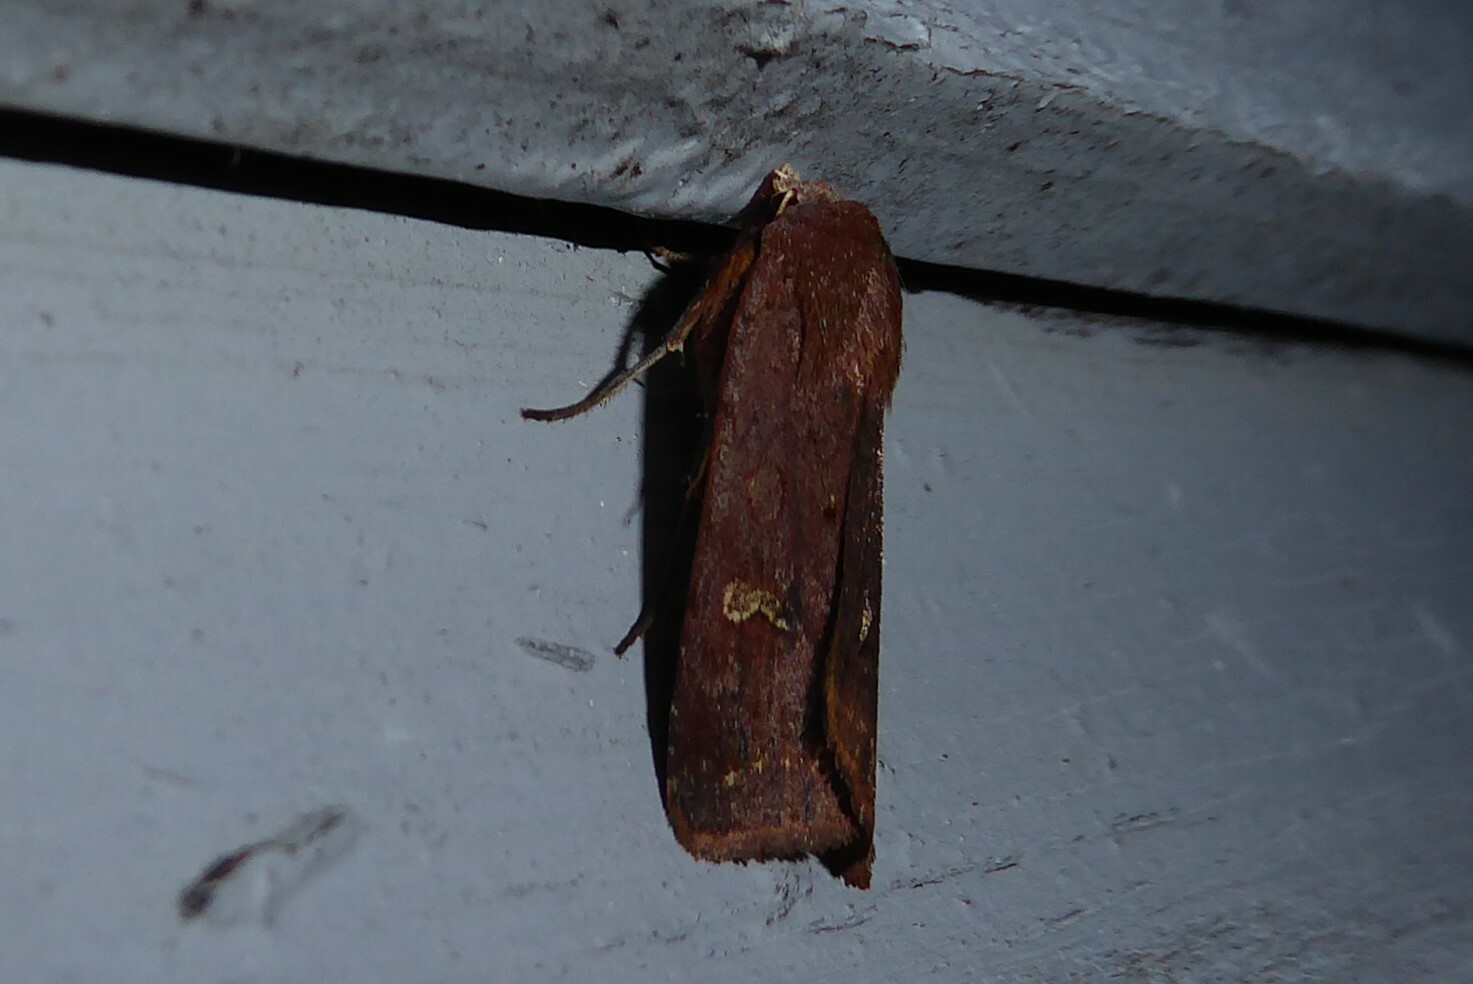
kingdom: Animalia
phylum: Arthropoda
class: Insecta
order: Lepidoptera
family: Noctuidae
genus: Diarsia
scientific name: Diarsia intermixta
